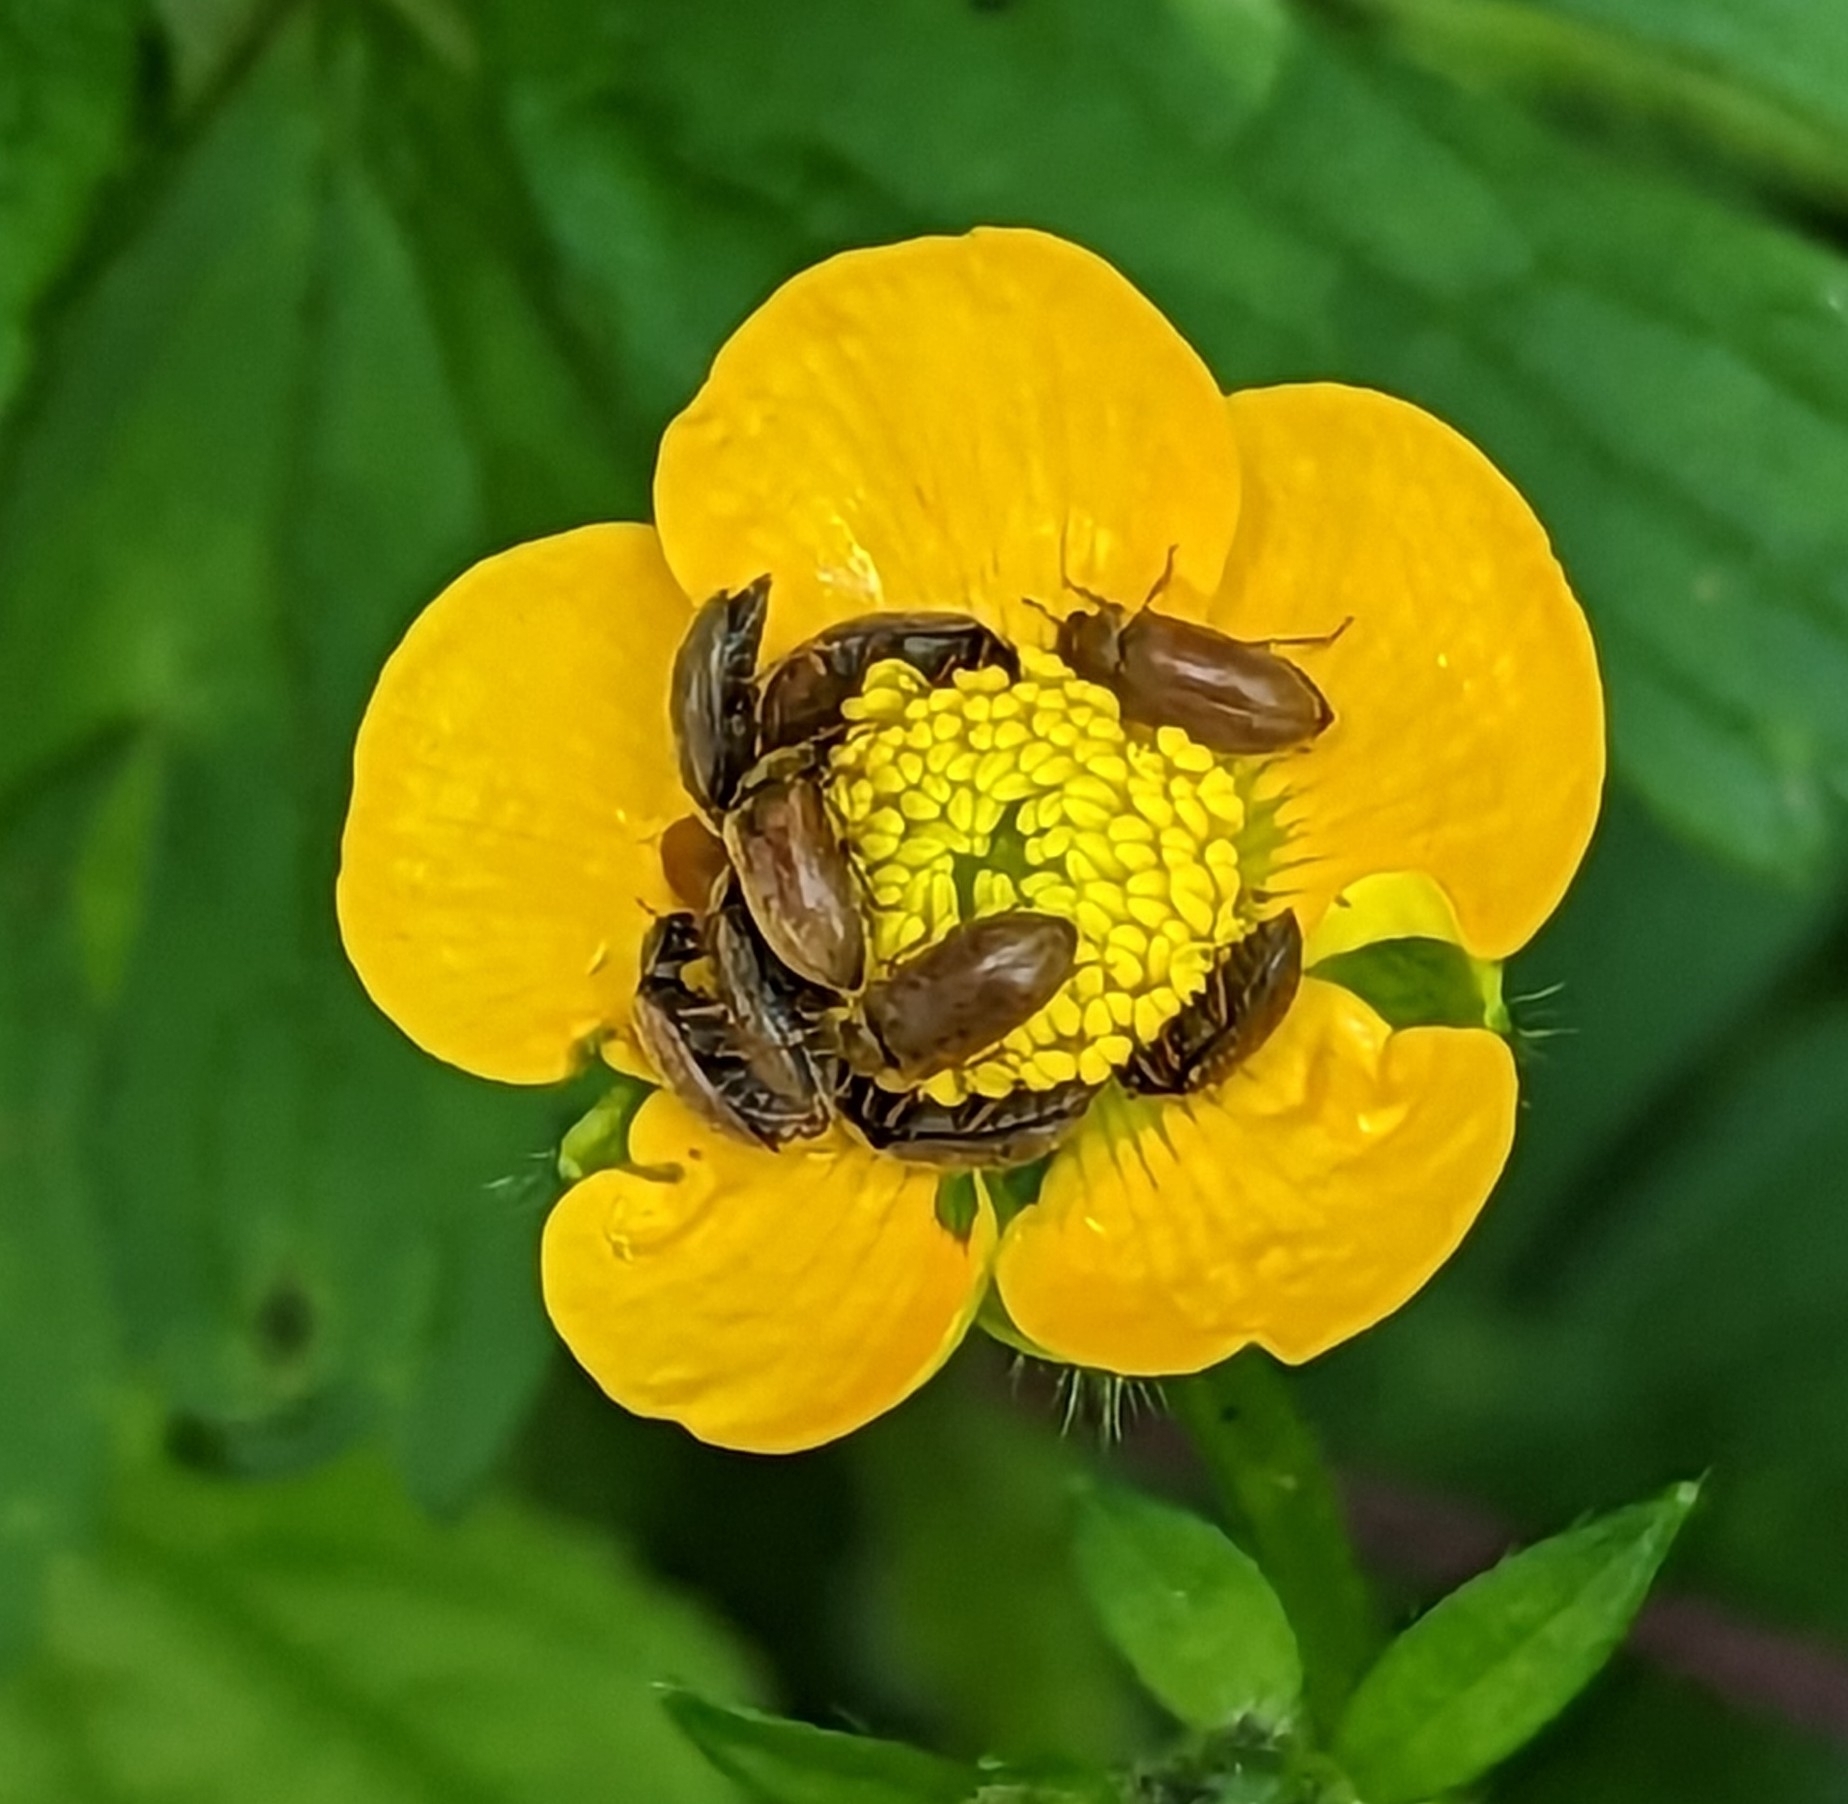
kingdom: Animalia
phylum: Arthropoda
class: Insecta
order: Coleoptera
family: Byturidae
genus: Byturus
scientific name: Byturus ochraceus
